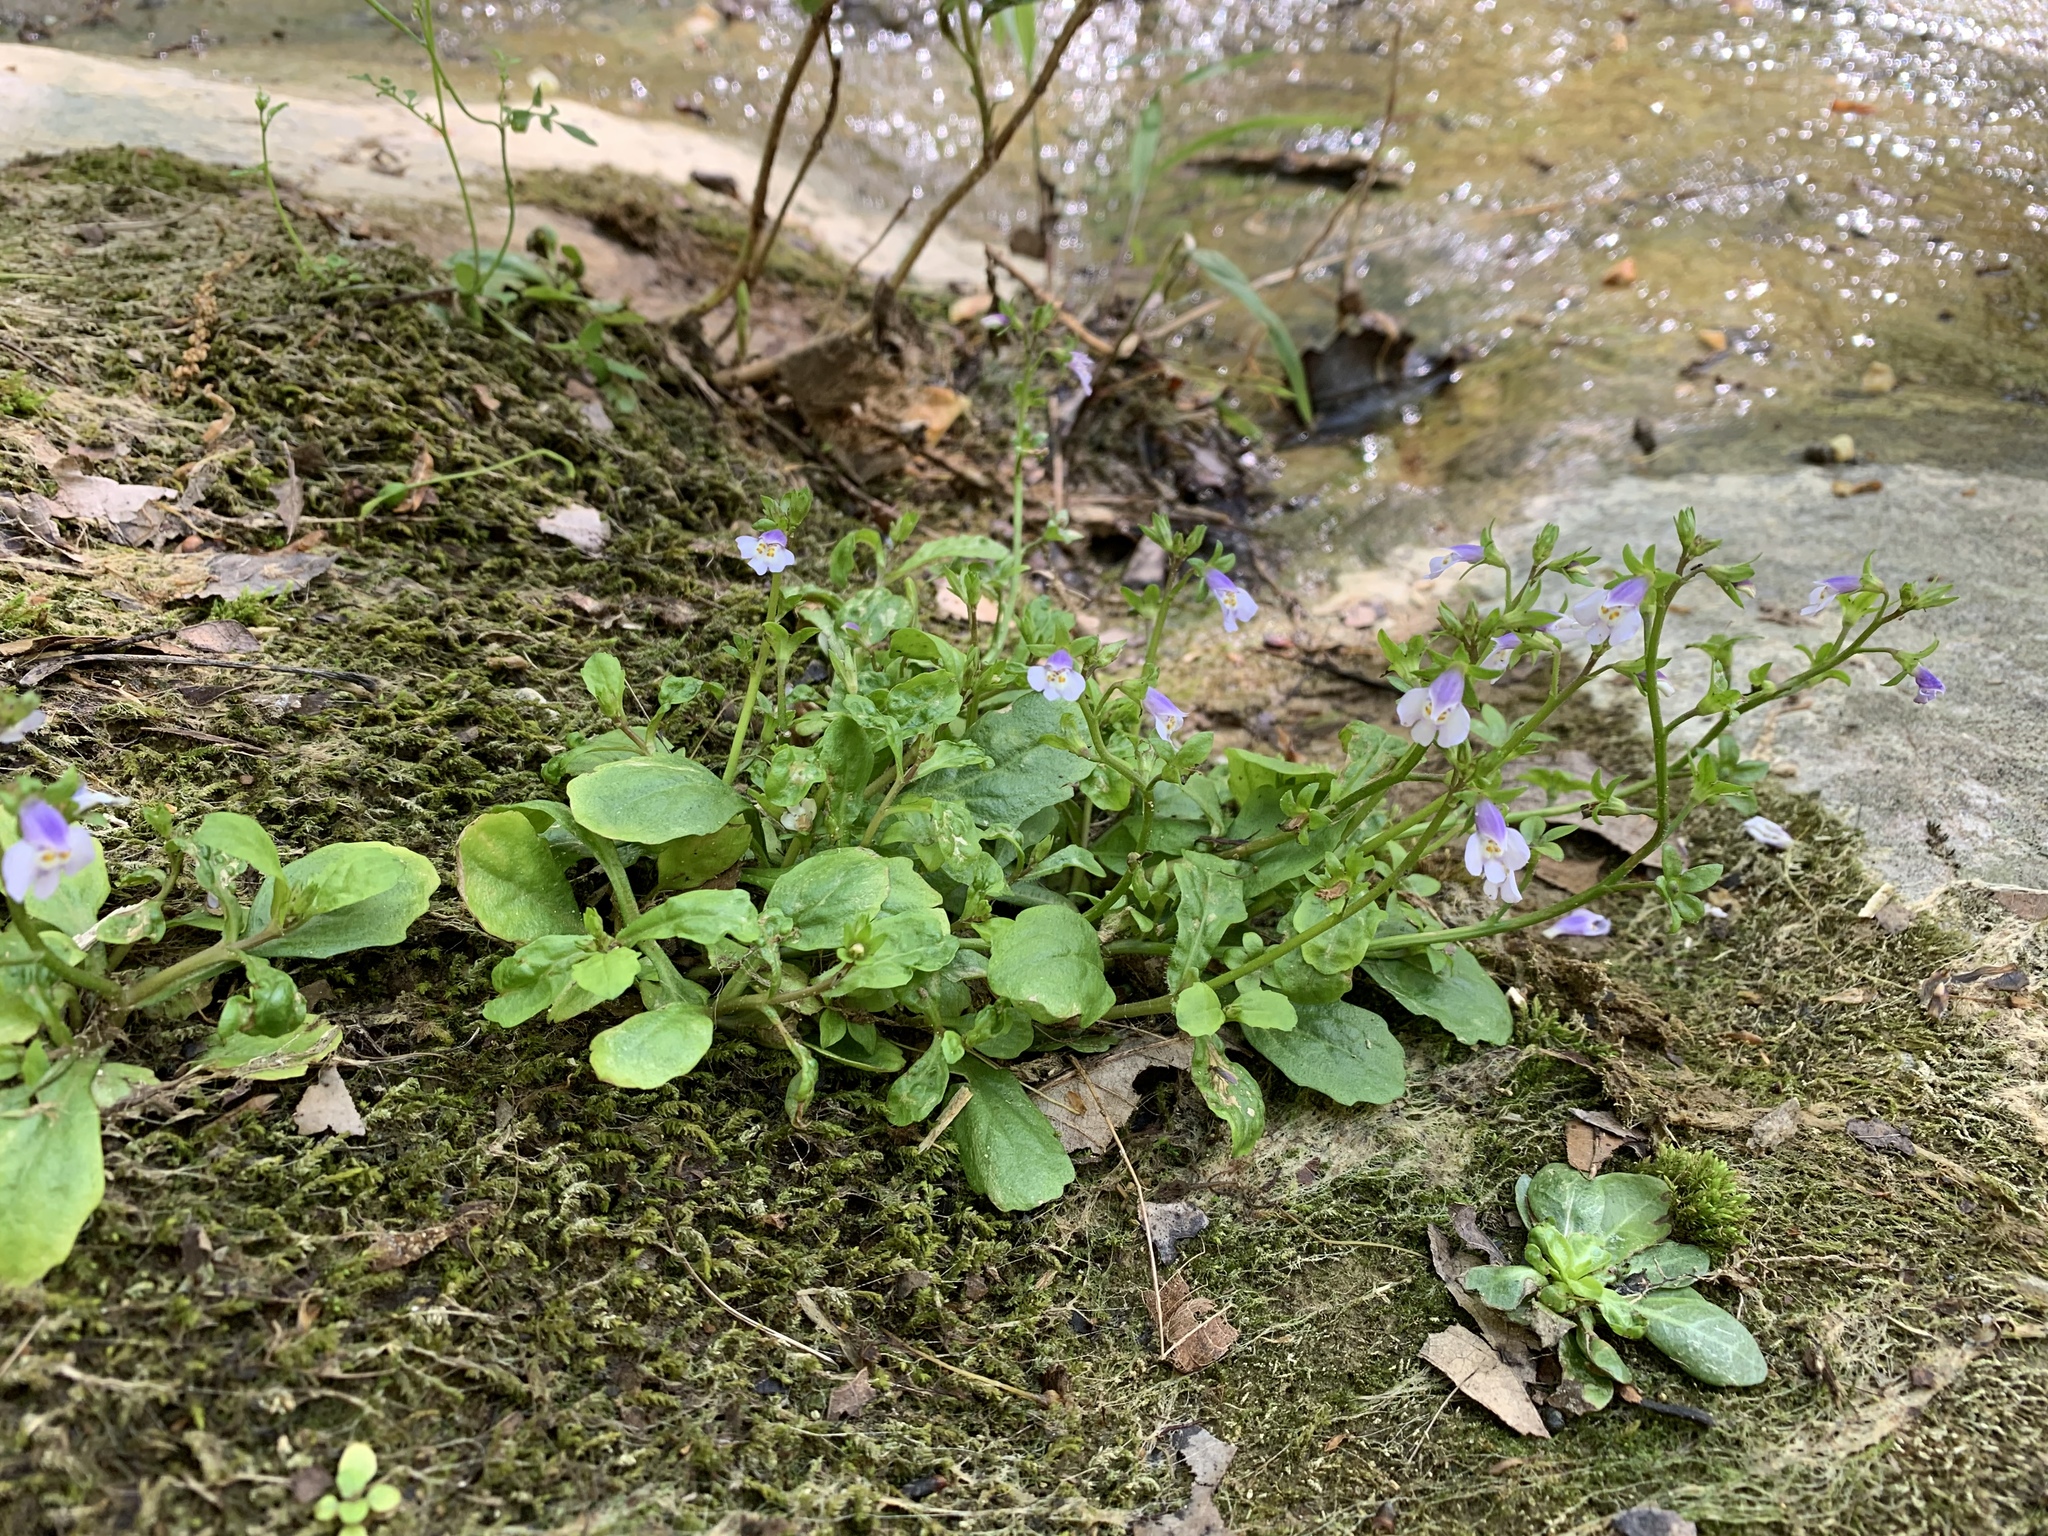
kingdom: Plantae
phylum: Tracheophyta
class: Magnoliopsida
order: Lamiales
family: Mazaceae
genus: Mazus
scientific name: Mazus pumilus
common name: Japanese mazus
